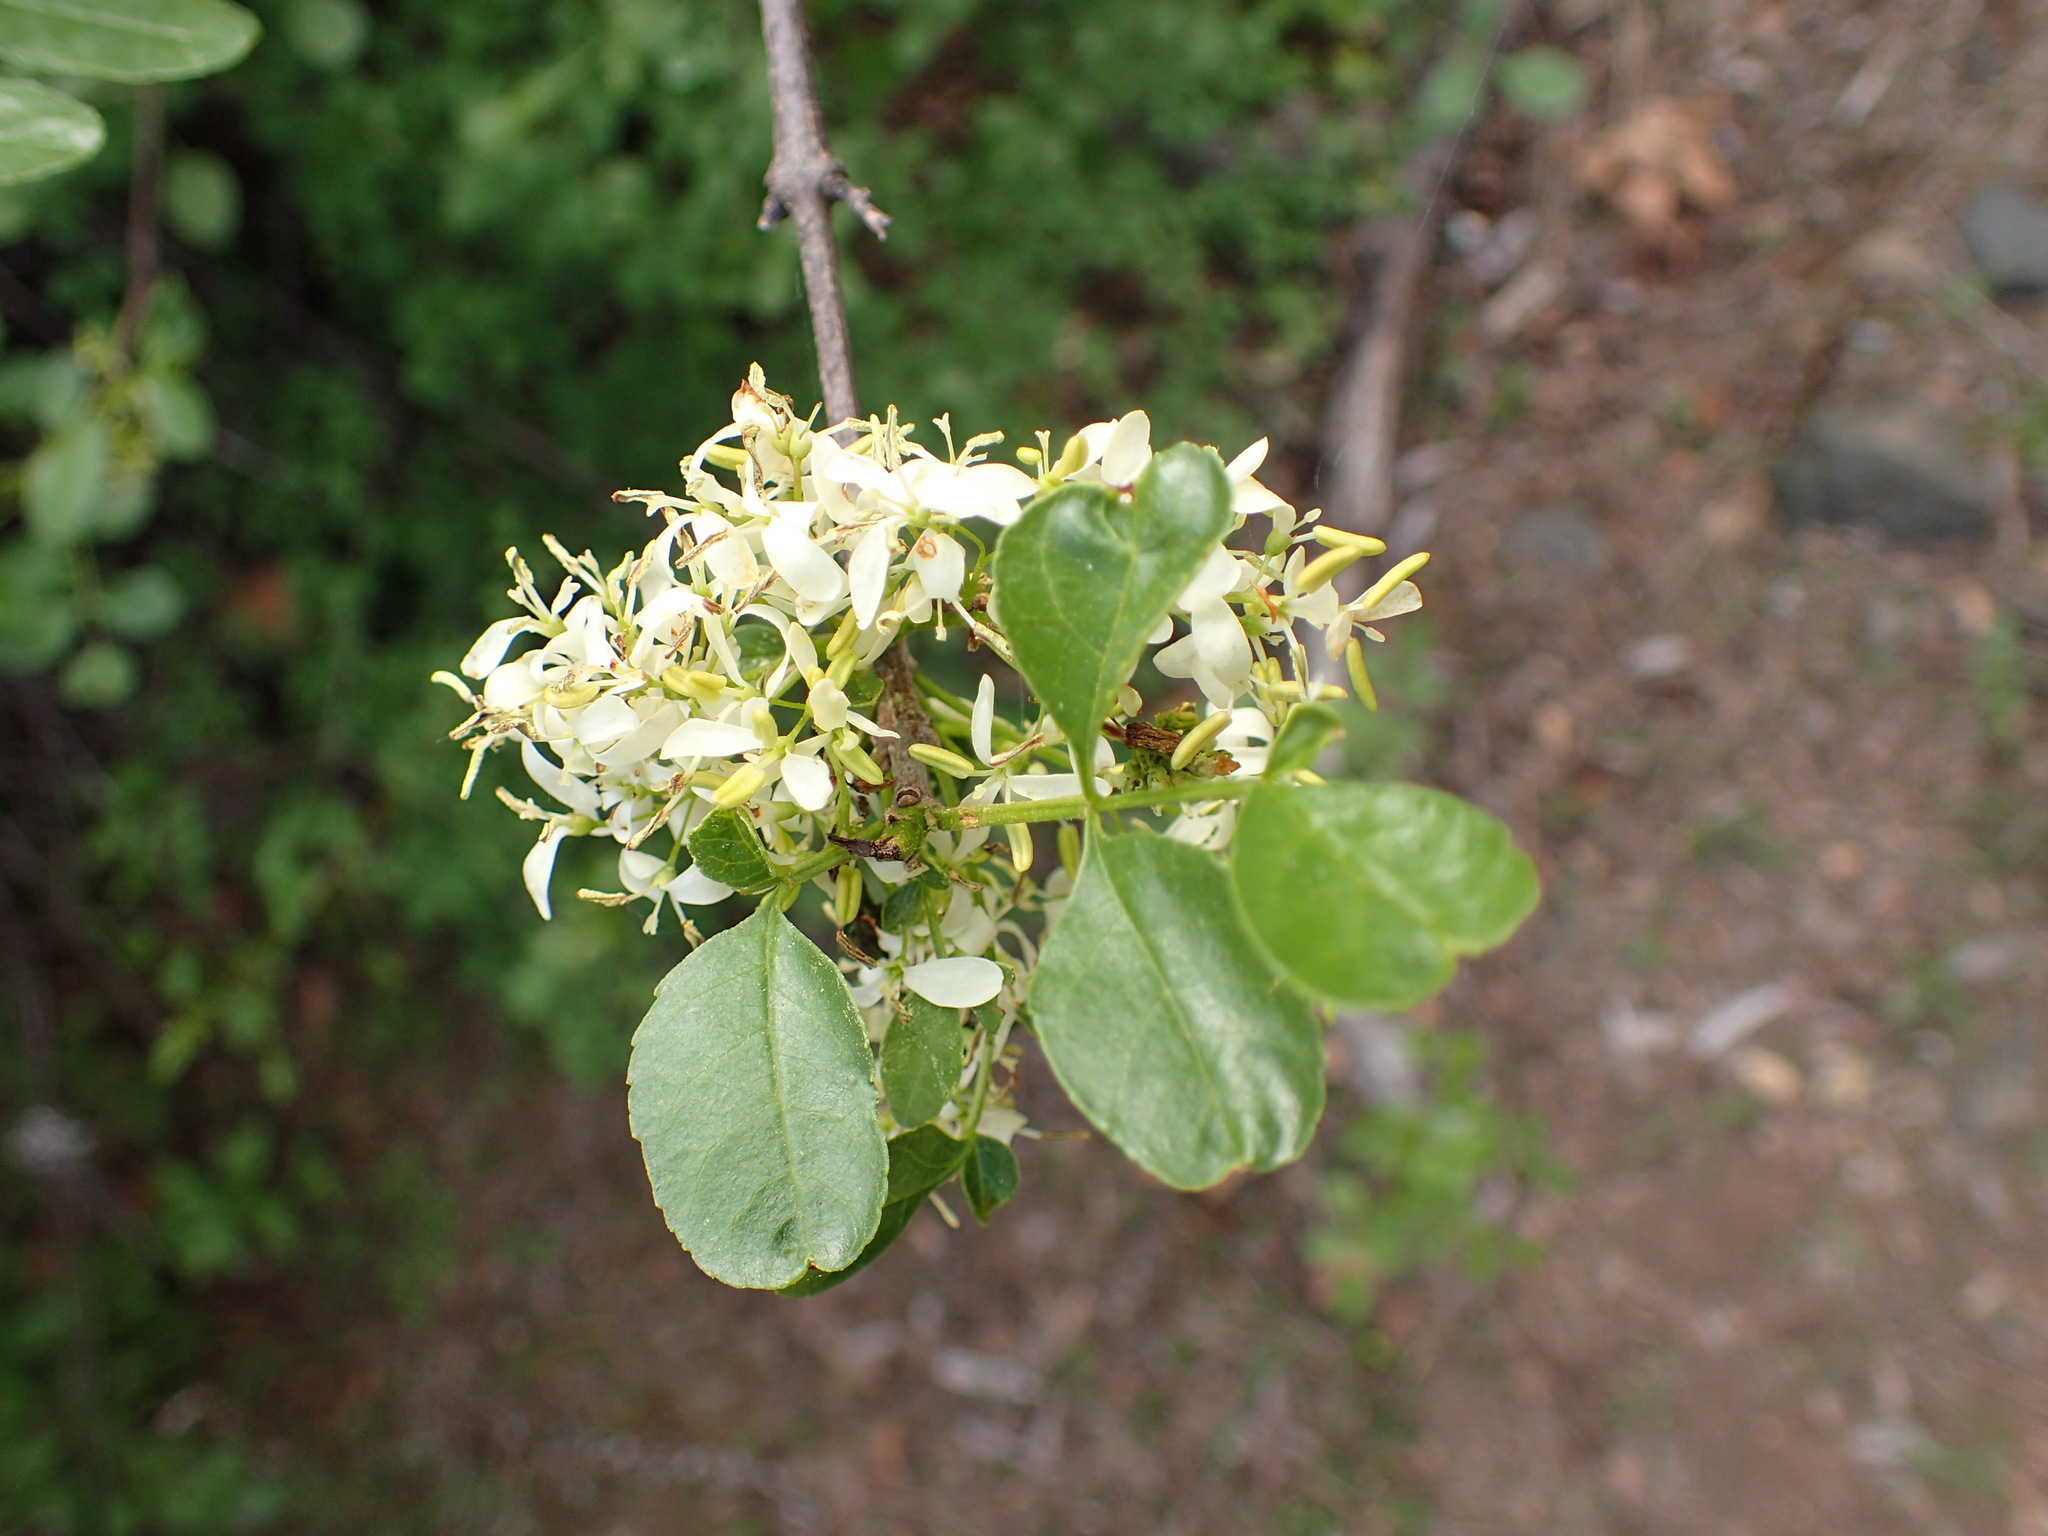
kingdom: Plantae
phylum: Tracheophyta
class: Magnoliopsida
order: Lamiales
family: Oleaceae
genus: Fraxinus
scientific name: Fraxinus dipetala
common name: California ash
